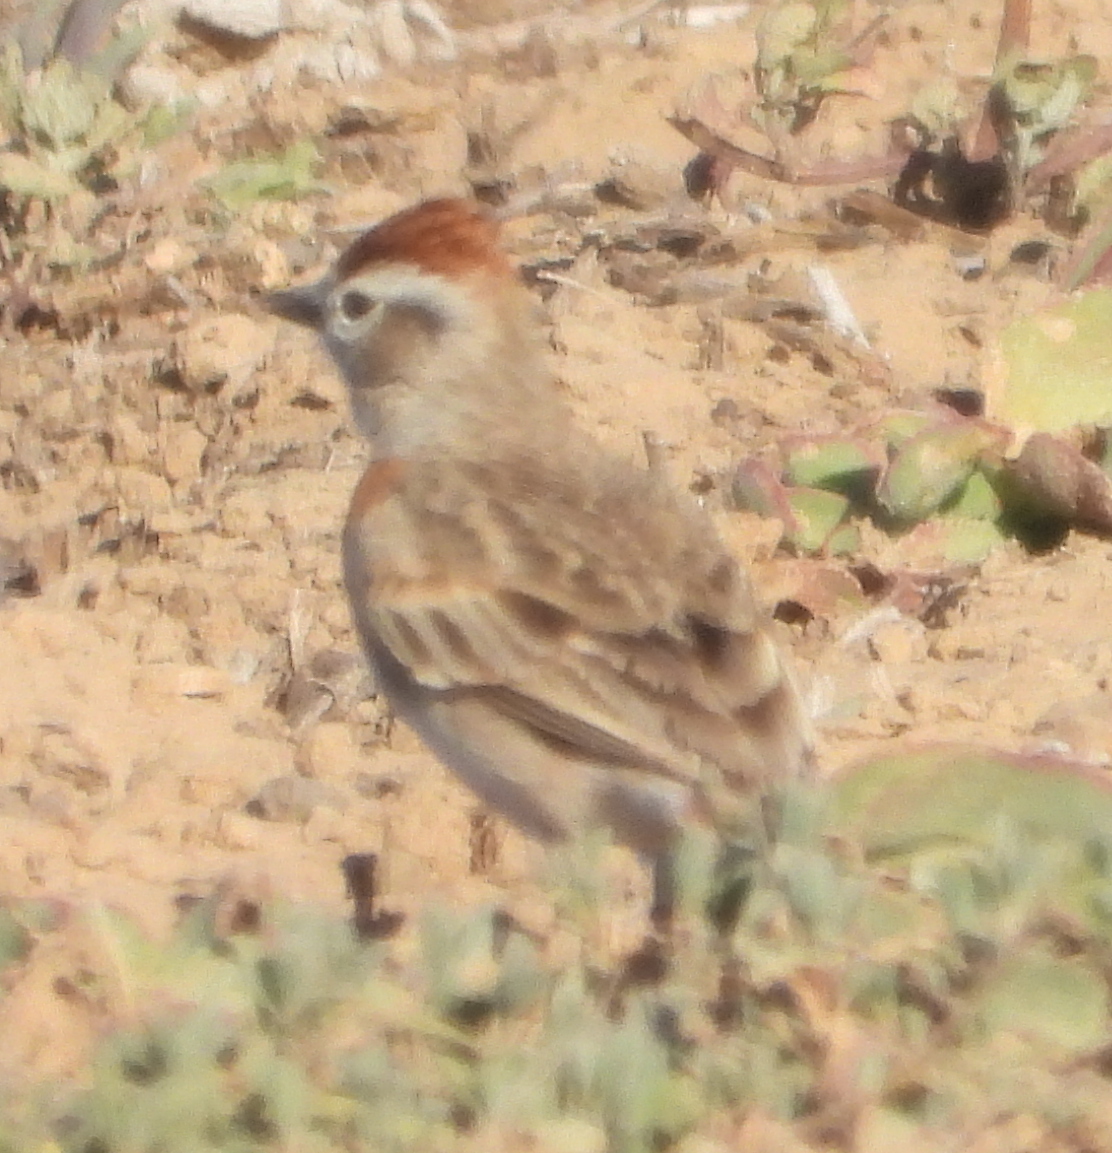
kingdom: Animalia
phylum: Chordata
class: Aves
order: Passeriformes
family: Alaudidae
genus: Calandrella
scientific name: Calandrella cinerea
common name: Red-capped lark
